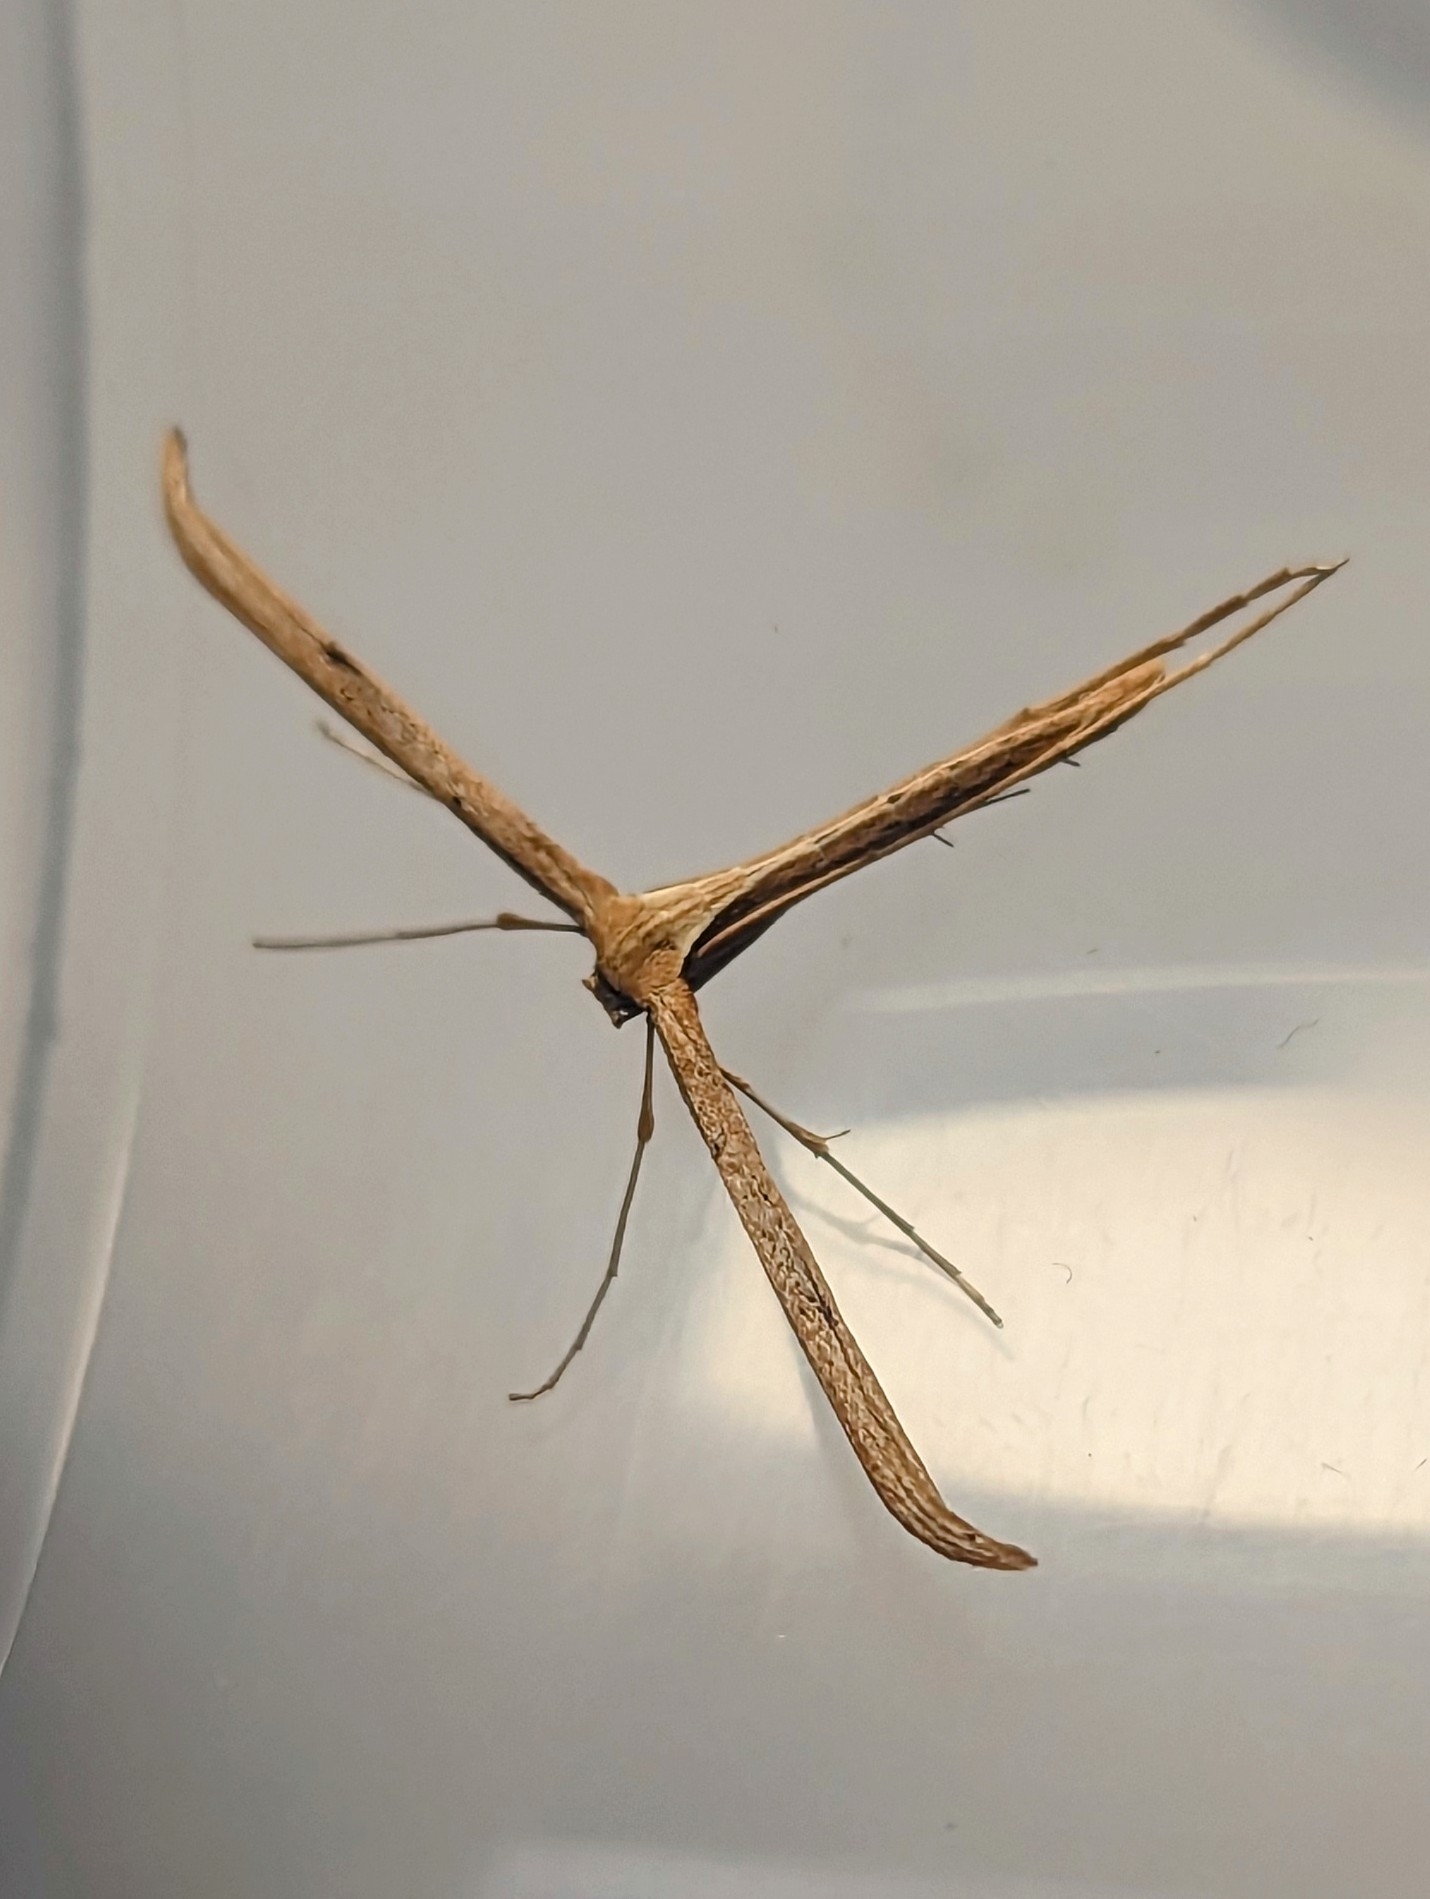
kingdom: Animalia
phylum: Arthropoda
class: Insecta
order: Lepidoptera
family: Pterophoridae
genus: Emmelina
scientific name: Emmelina monodactyla
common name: Common plume
